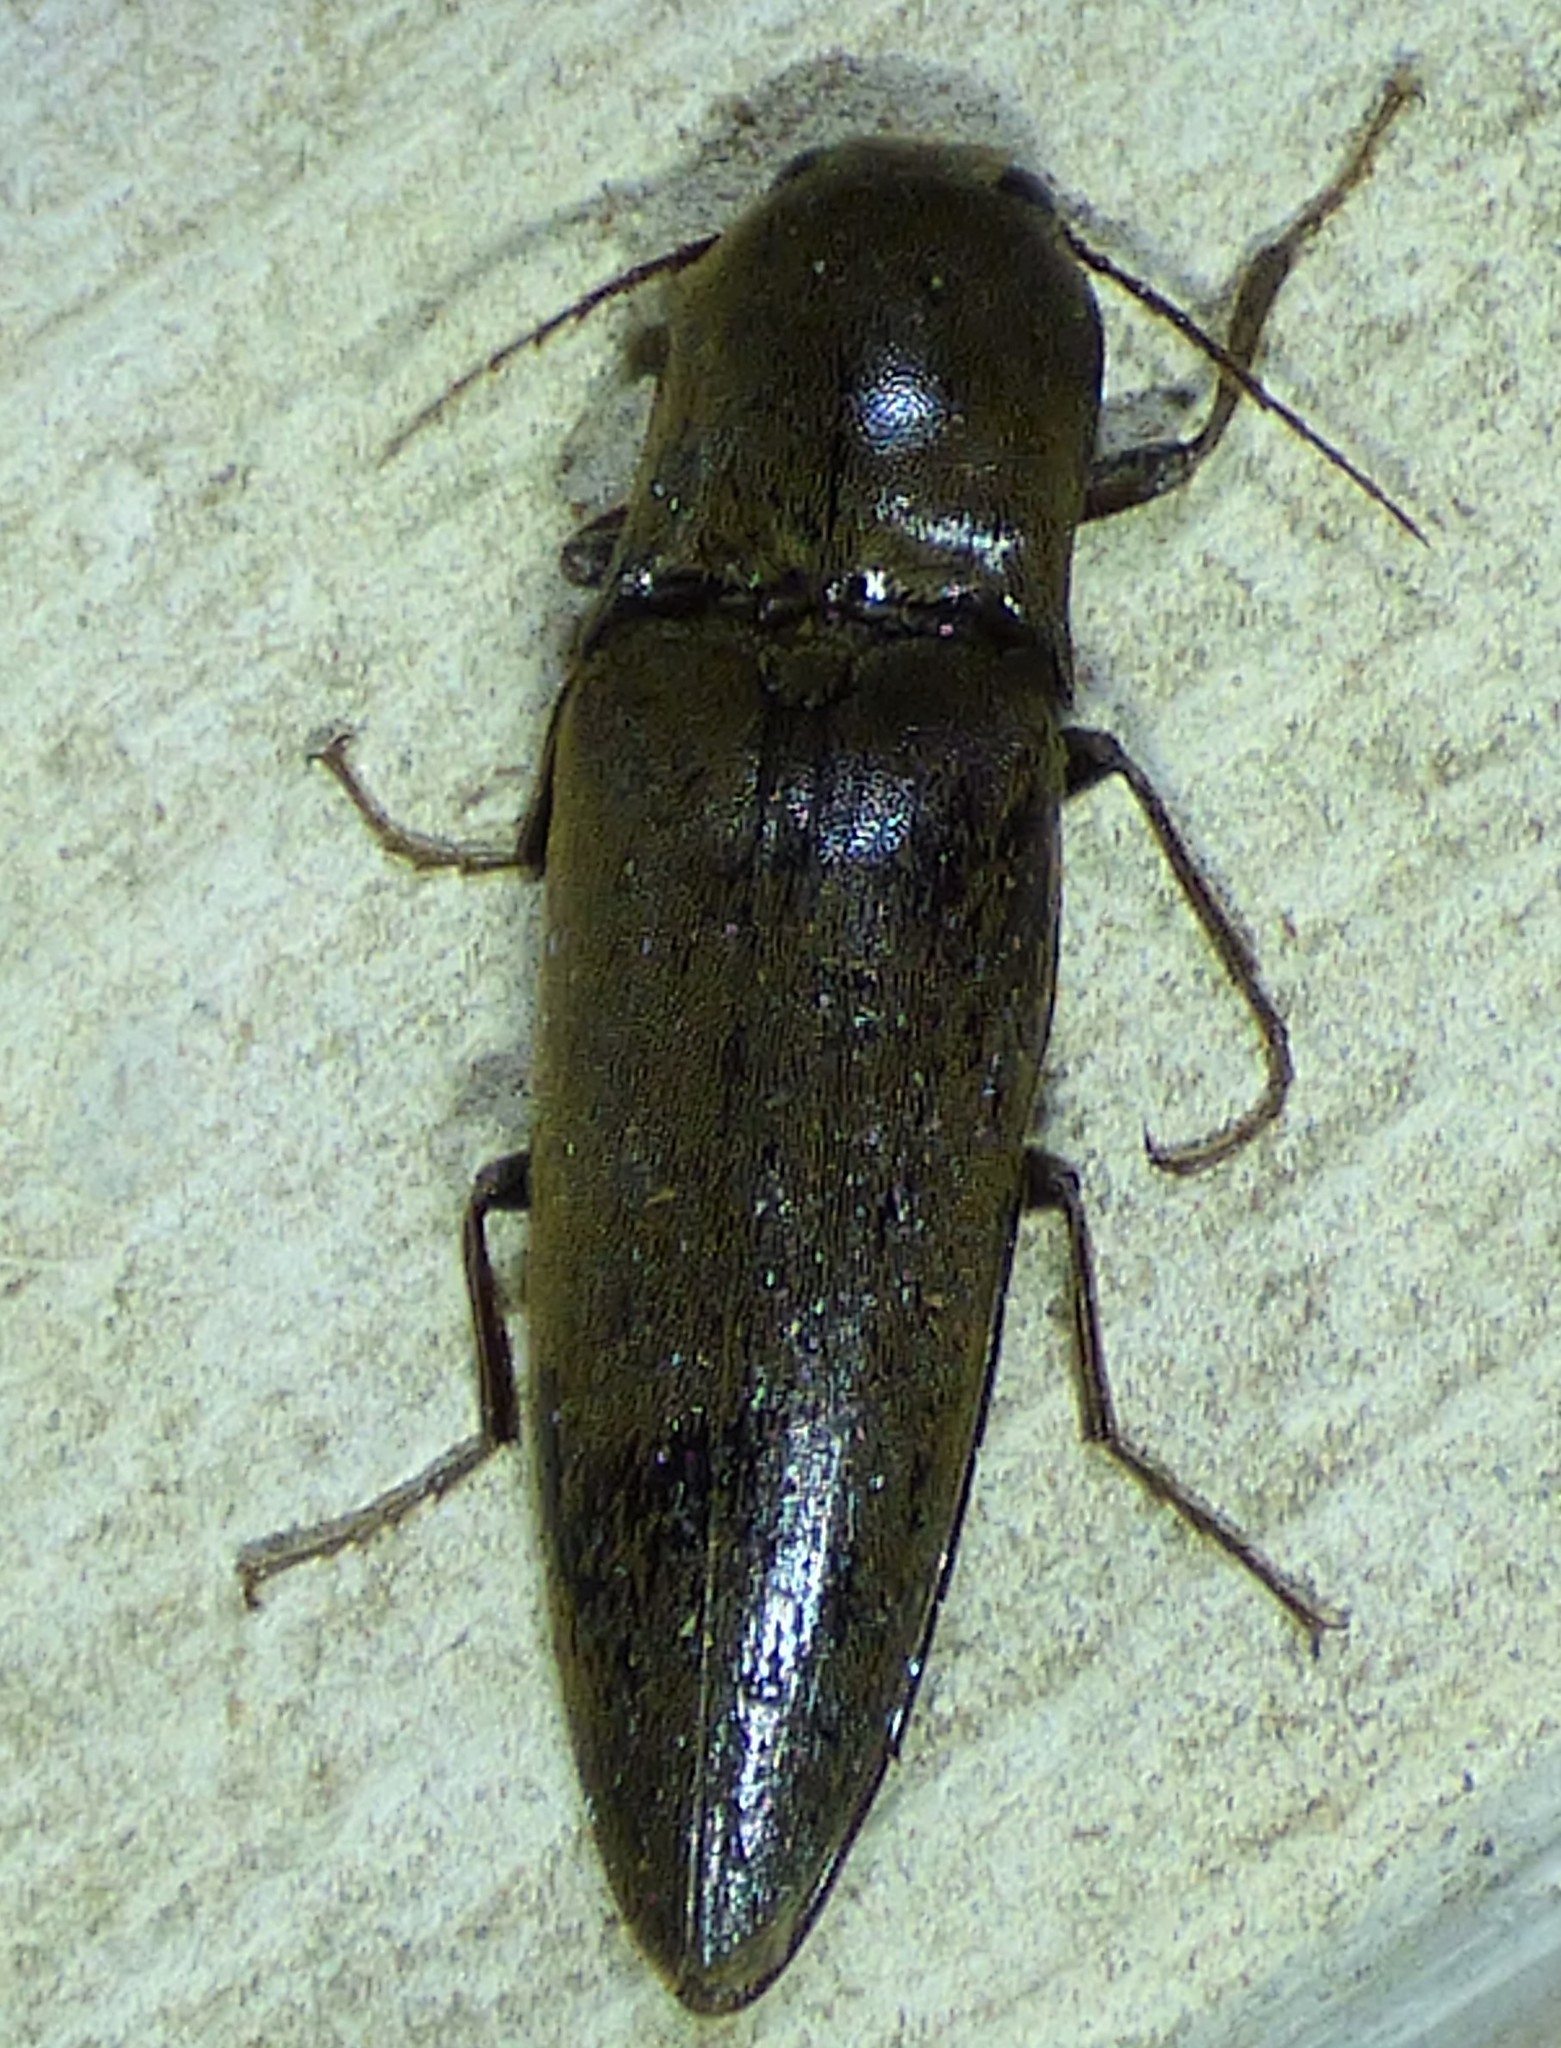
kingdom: Animalia
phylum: Arthropoda
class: Insecta
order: Coleoptera
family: Elateridae
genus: Orthostethus
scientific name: Orthostethus infuscatus
